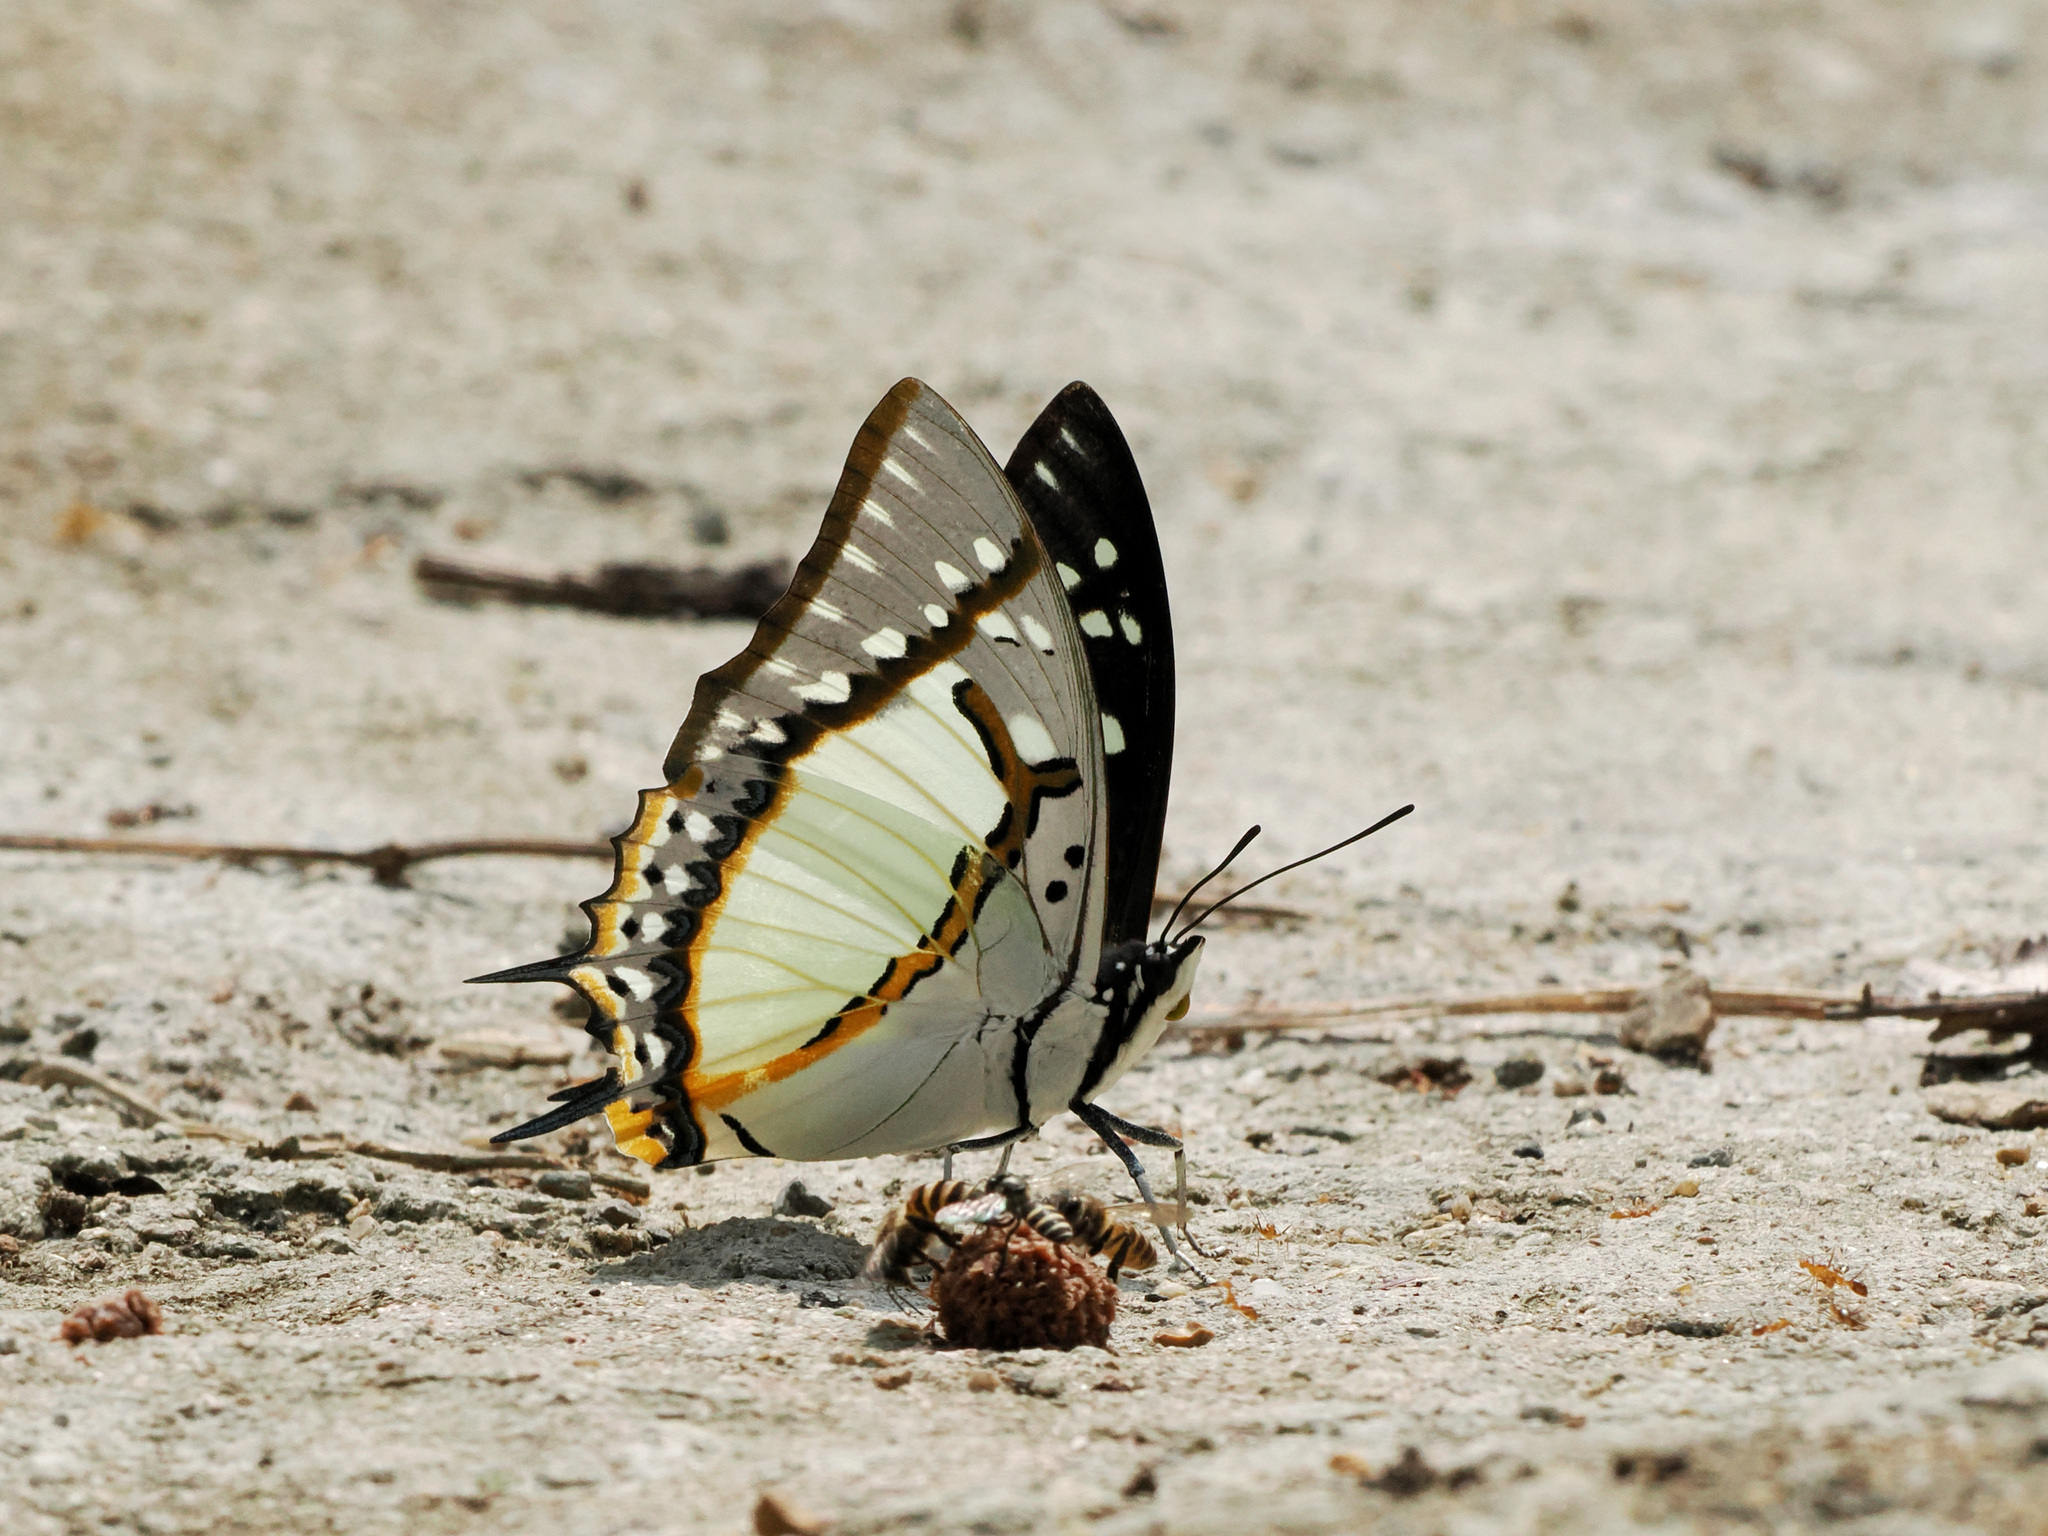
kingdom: Animalia
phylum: Arthropoda
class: Insecta
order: Lepidoptera
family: Nymphalidae
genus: Polyura
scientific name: Polyura eudamippus
